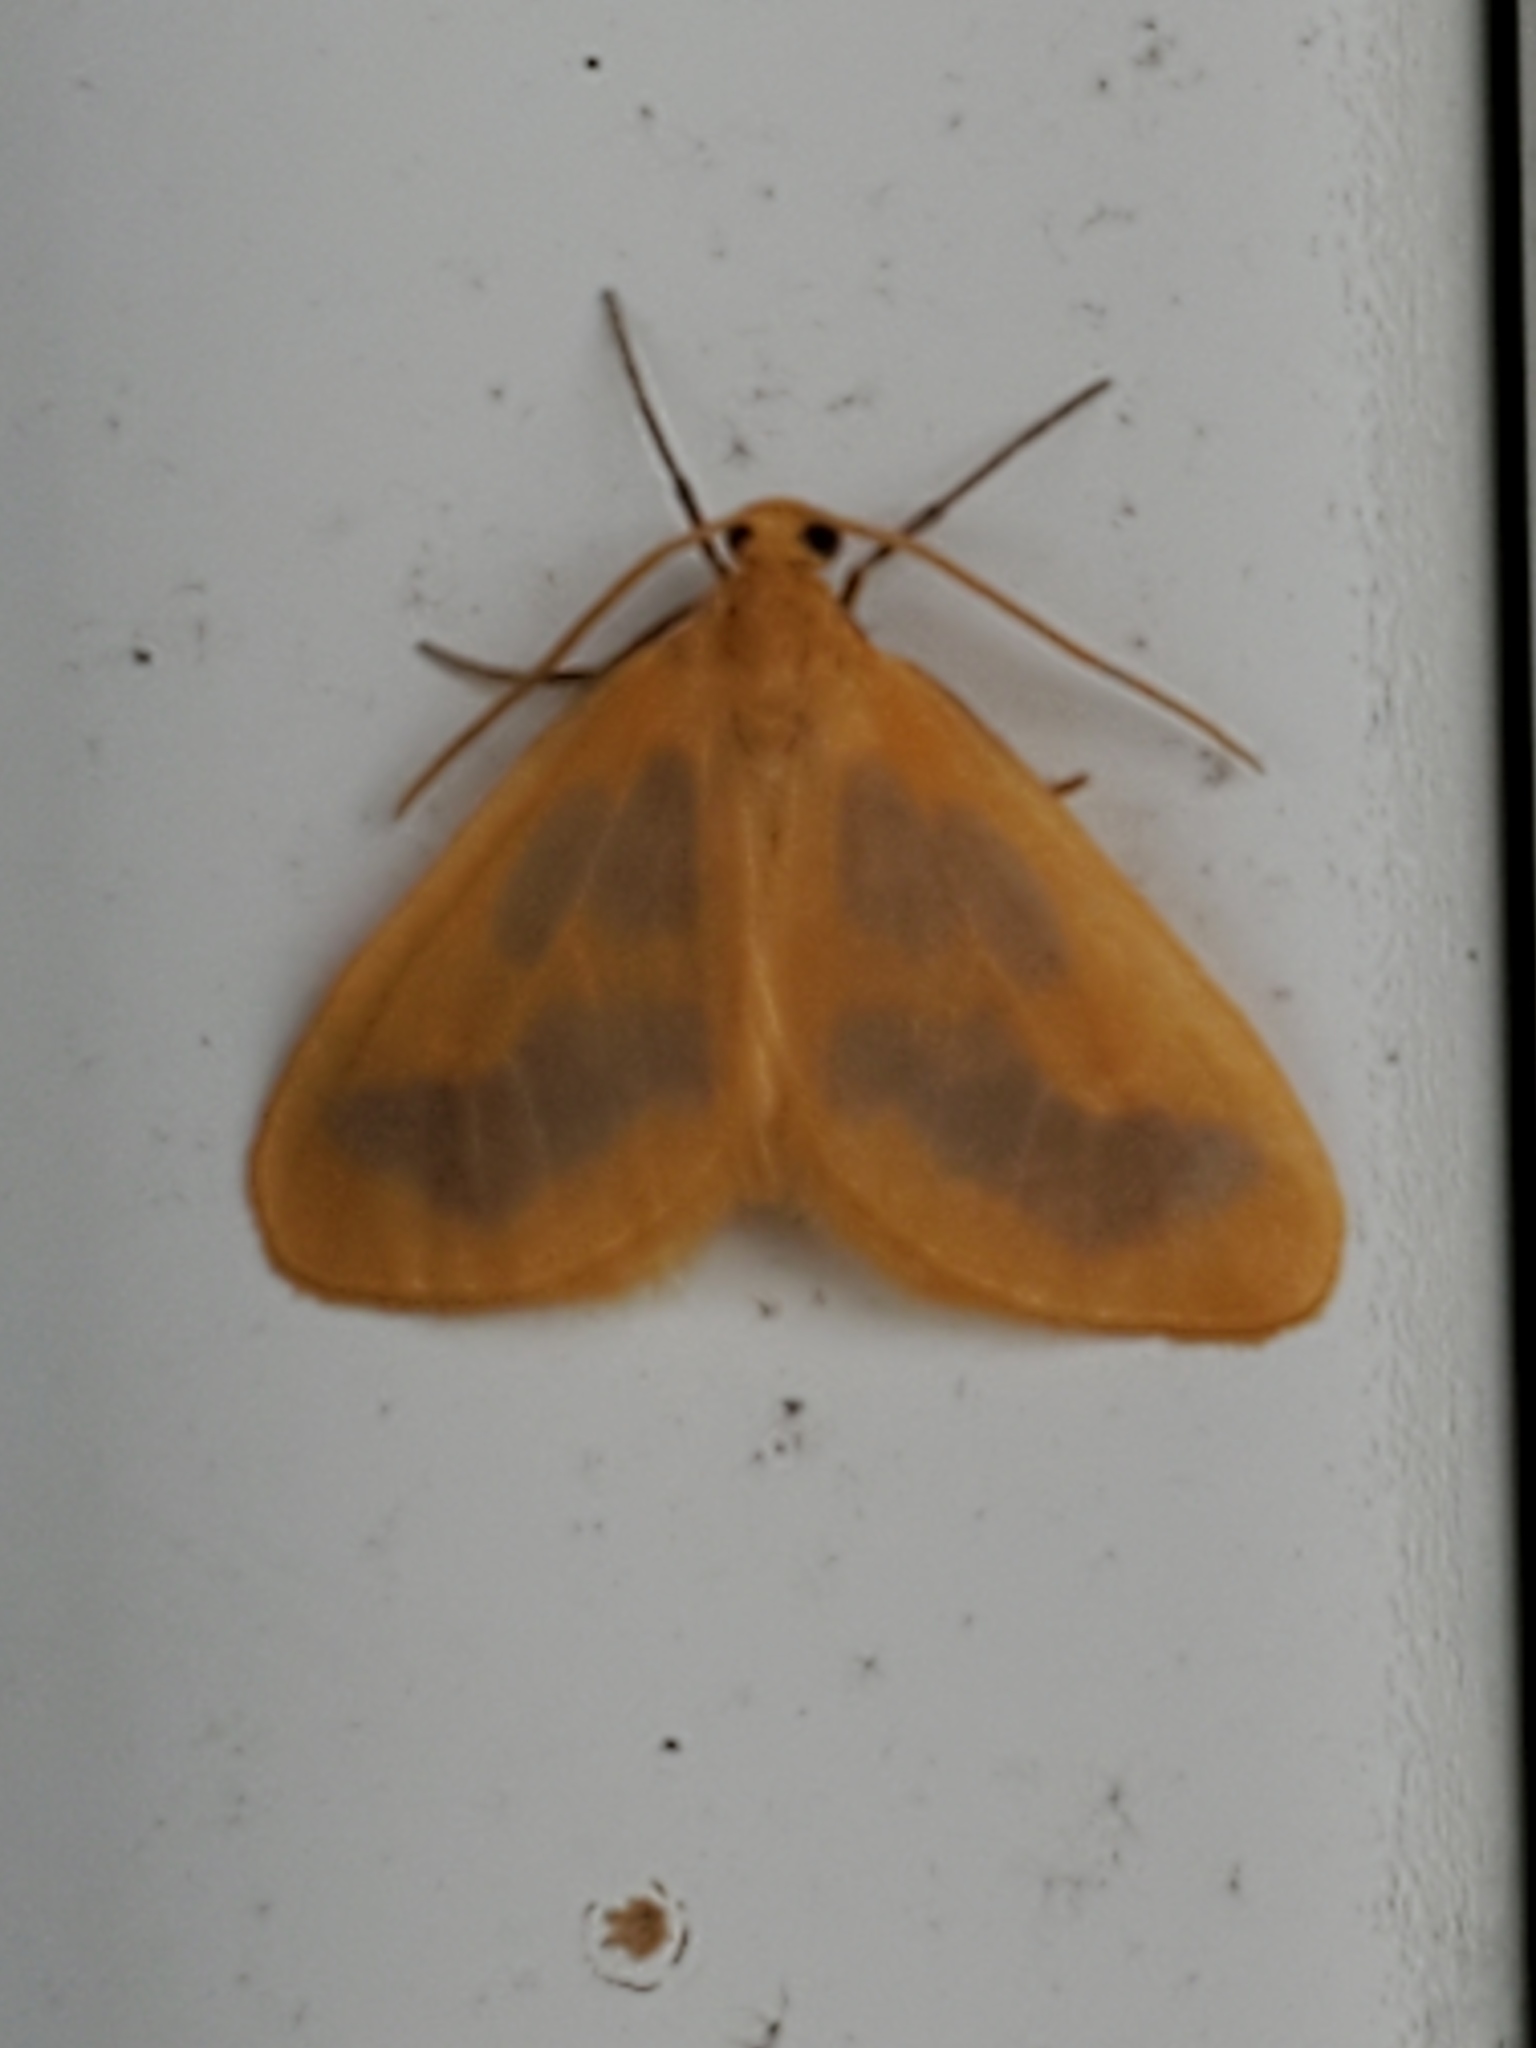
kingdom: Animalia
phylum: Arthropoda
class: Insecta
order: Lepidoptera
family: Geometridae
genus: Eubaphe
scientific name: Eubaphe helveta
